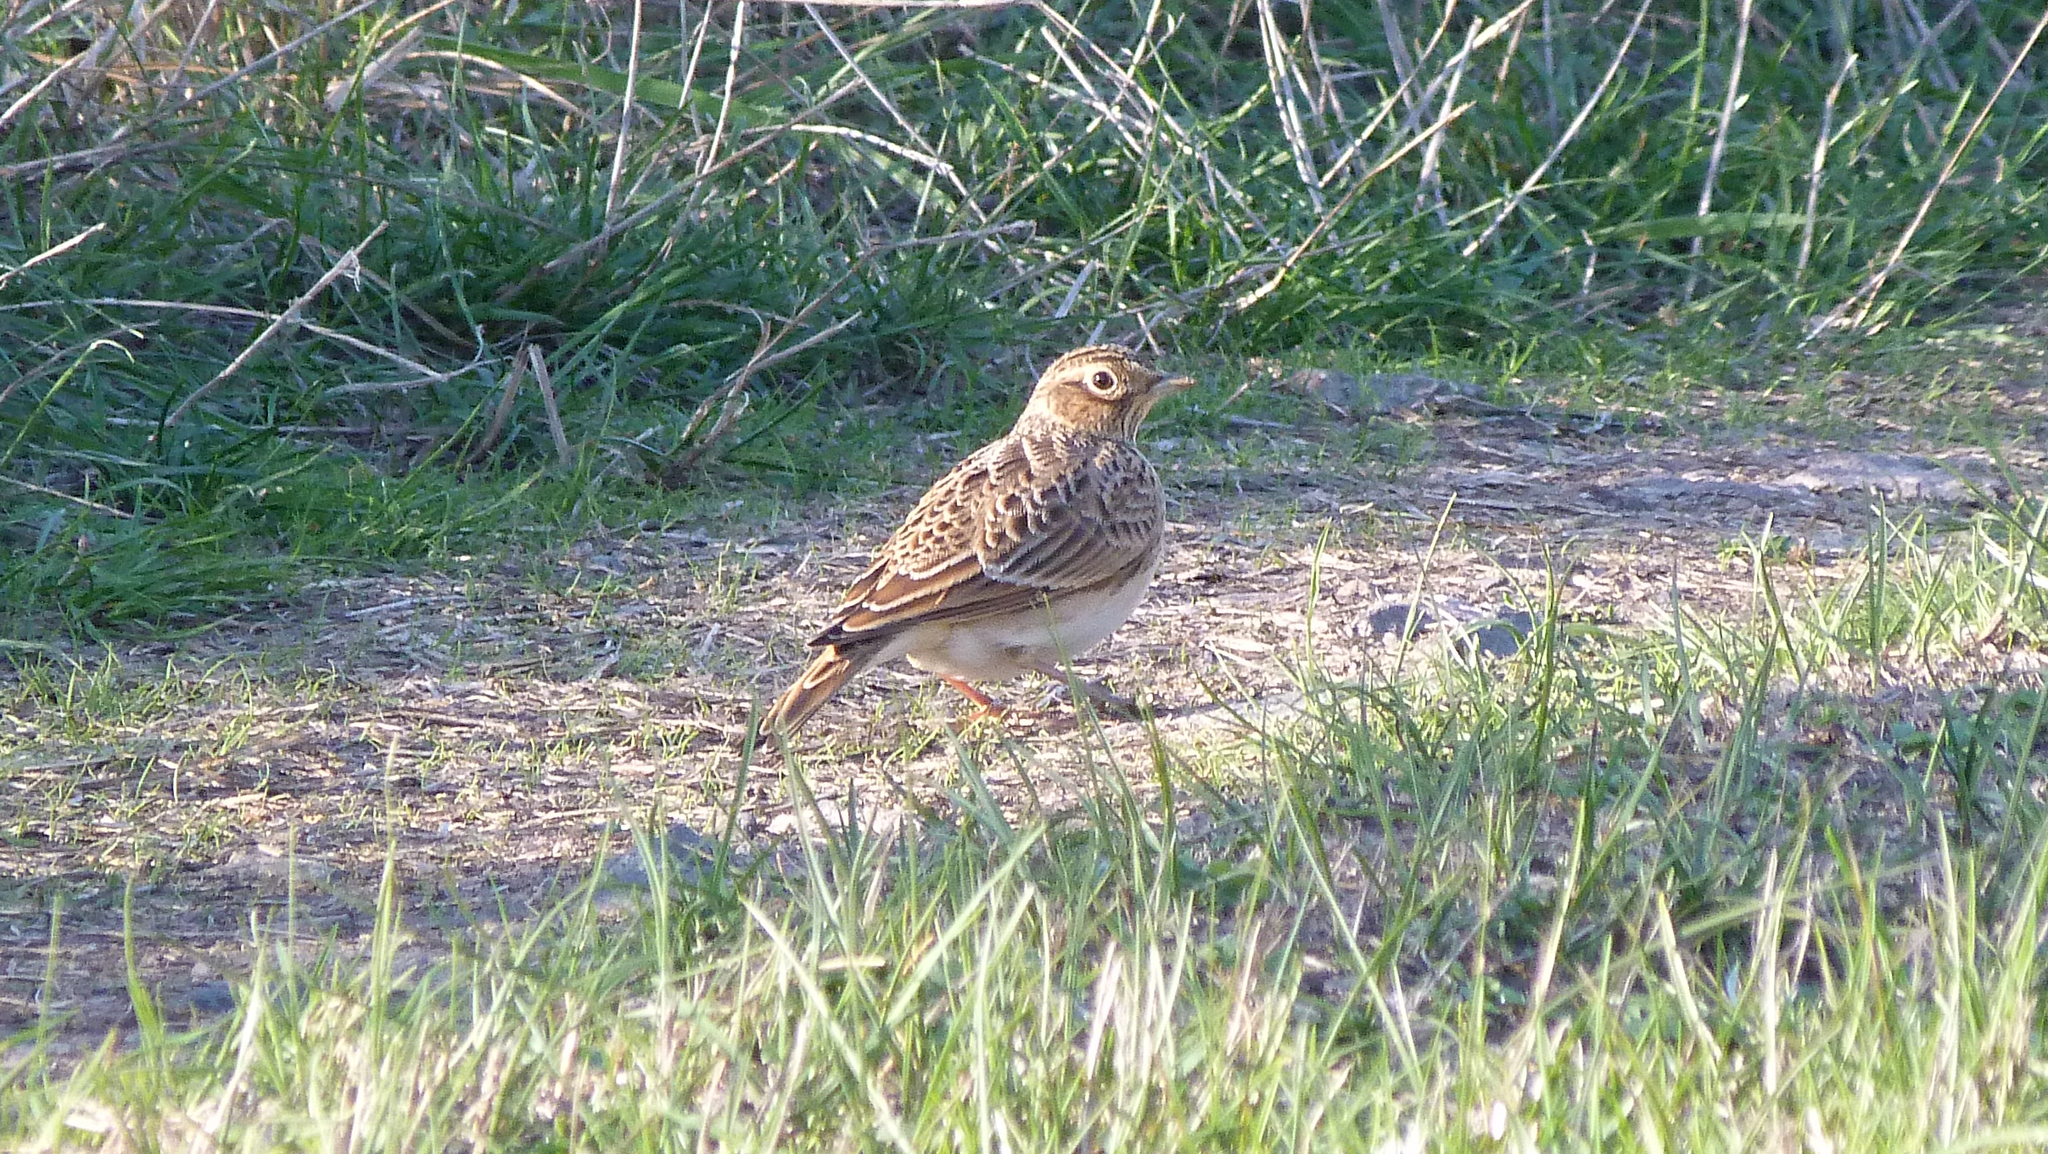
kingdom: Animalia
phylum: Chordata
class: Aves
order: Passeriformes
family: Alaudidae
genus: Alauda
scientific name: Alauda arvensis
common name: Eurasian skylark
